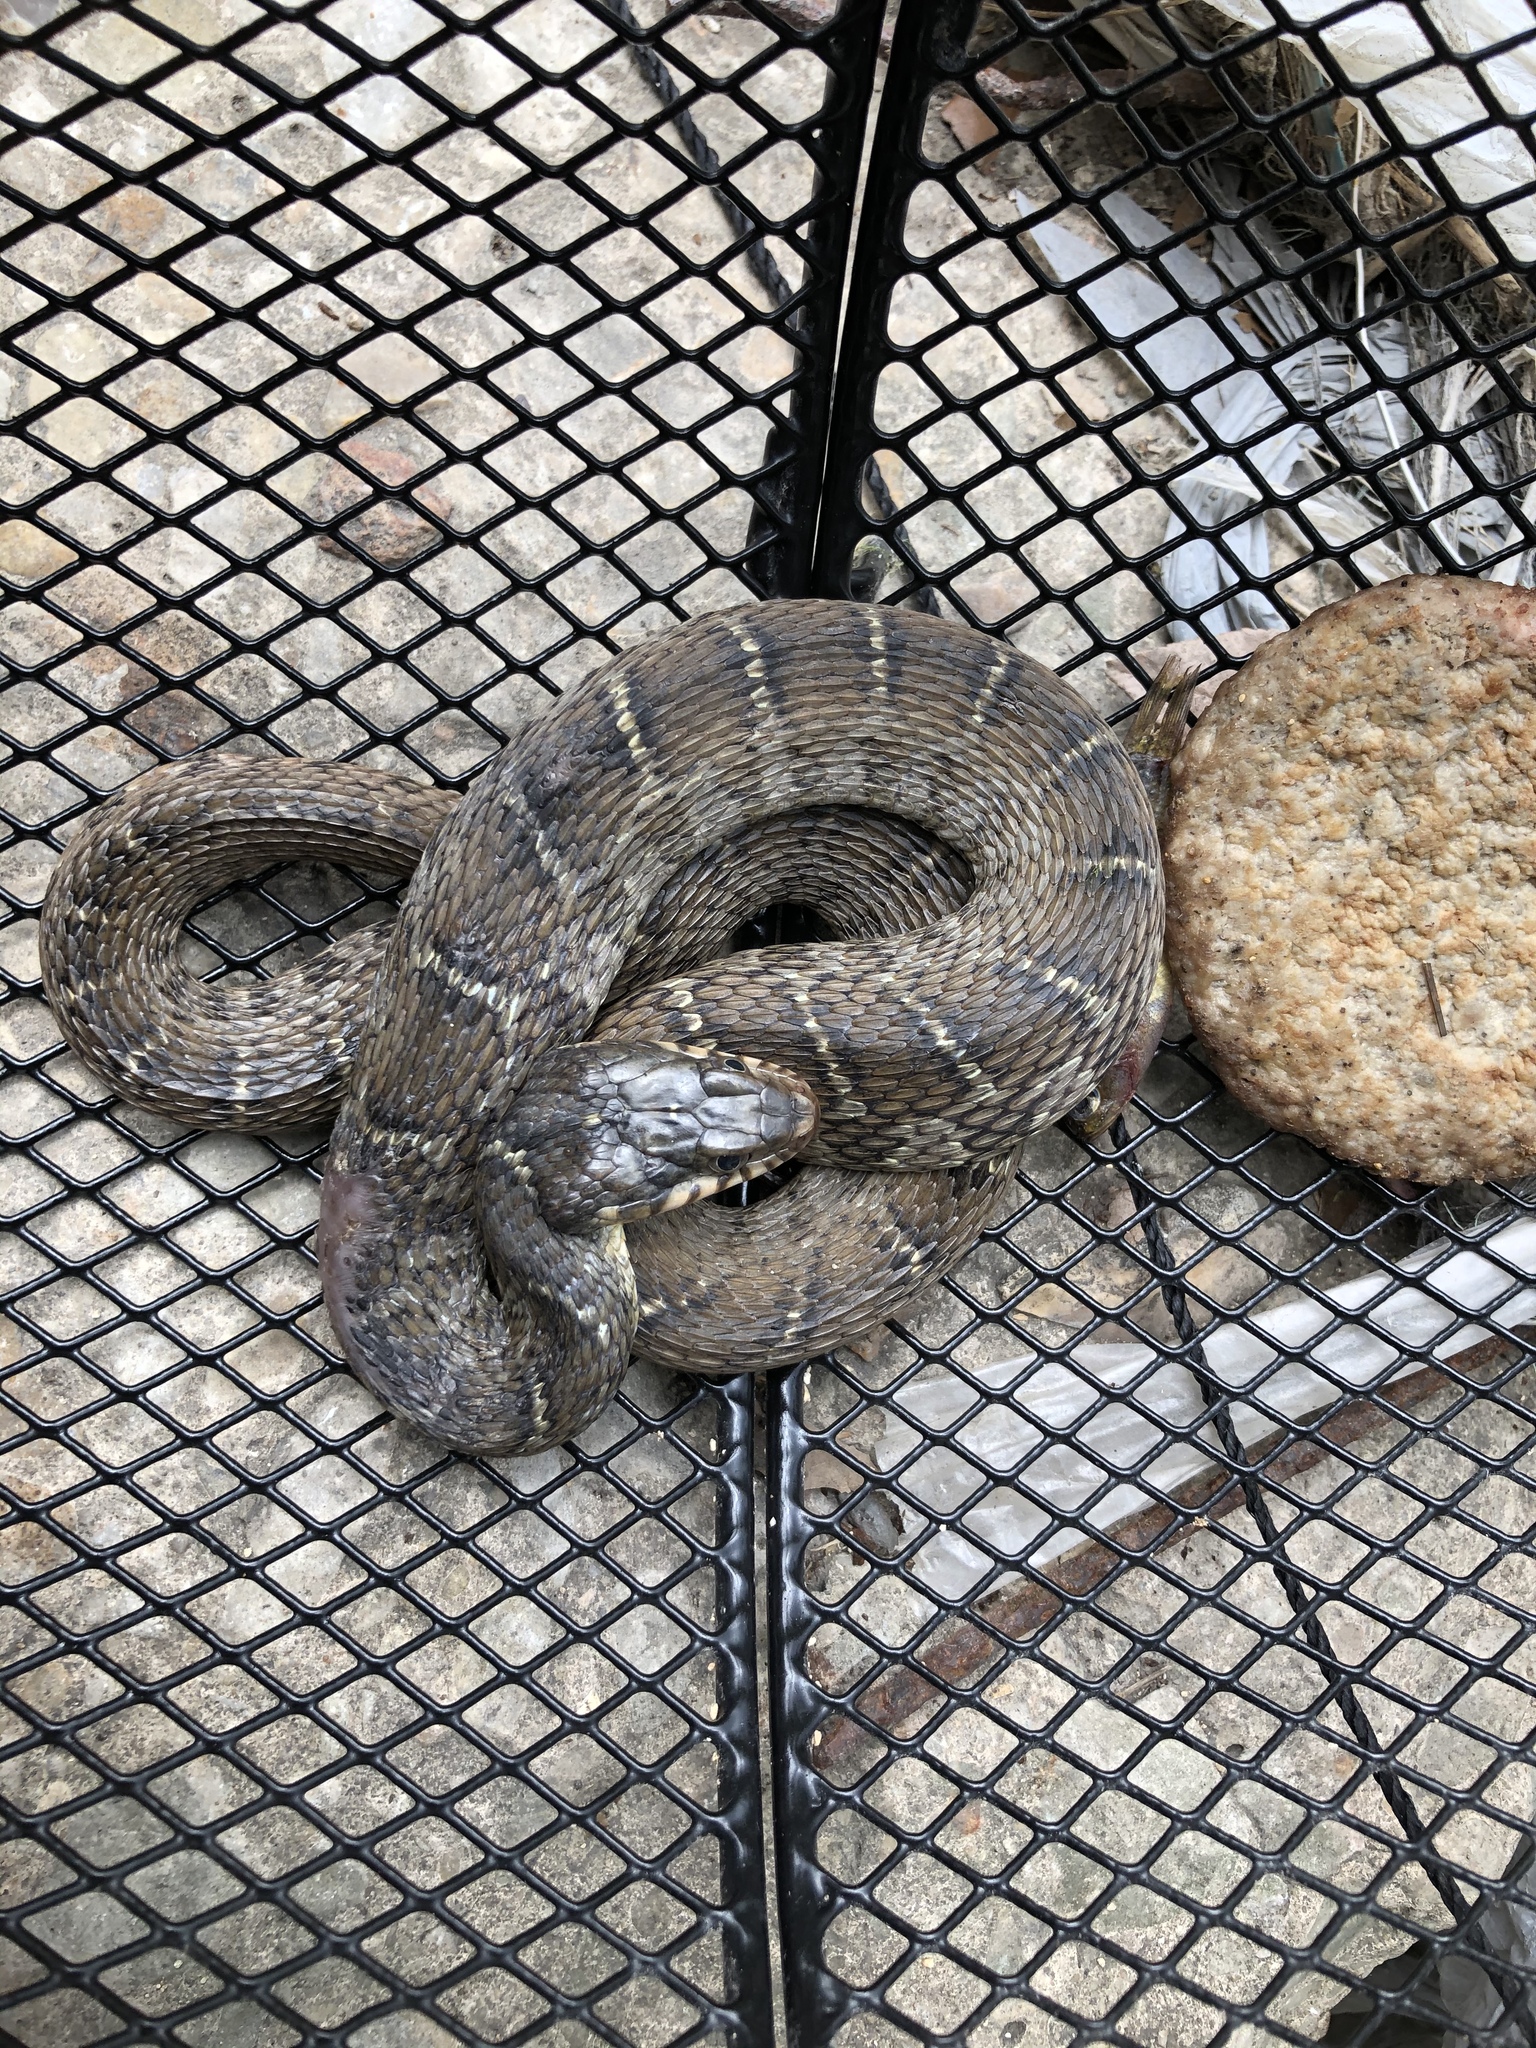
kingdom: Animalia
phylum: Chordata
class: Squamata
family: Colubridae
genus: Nerodia
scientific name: Nerodia erythrogaster
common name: Plainbelly water snake
